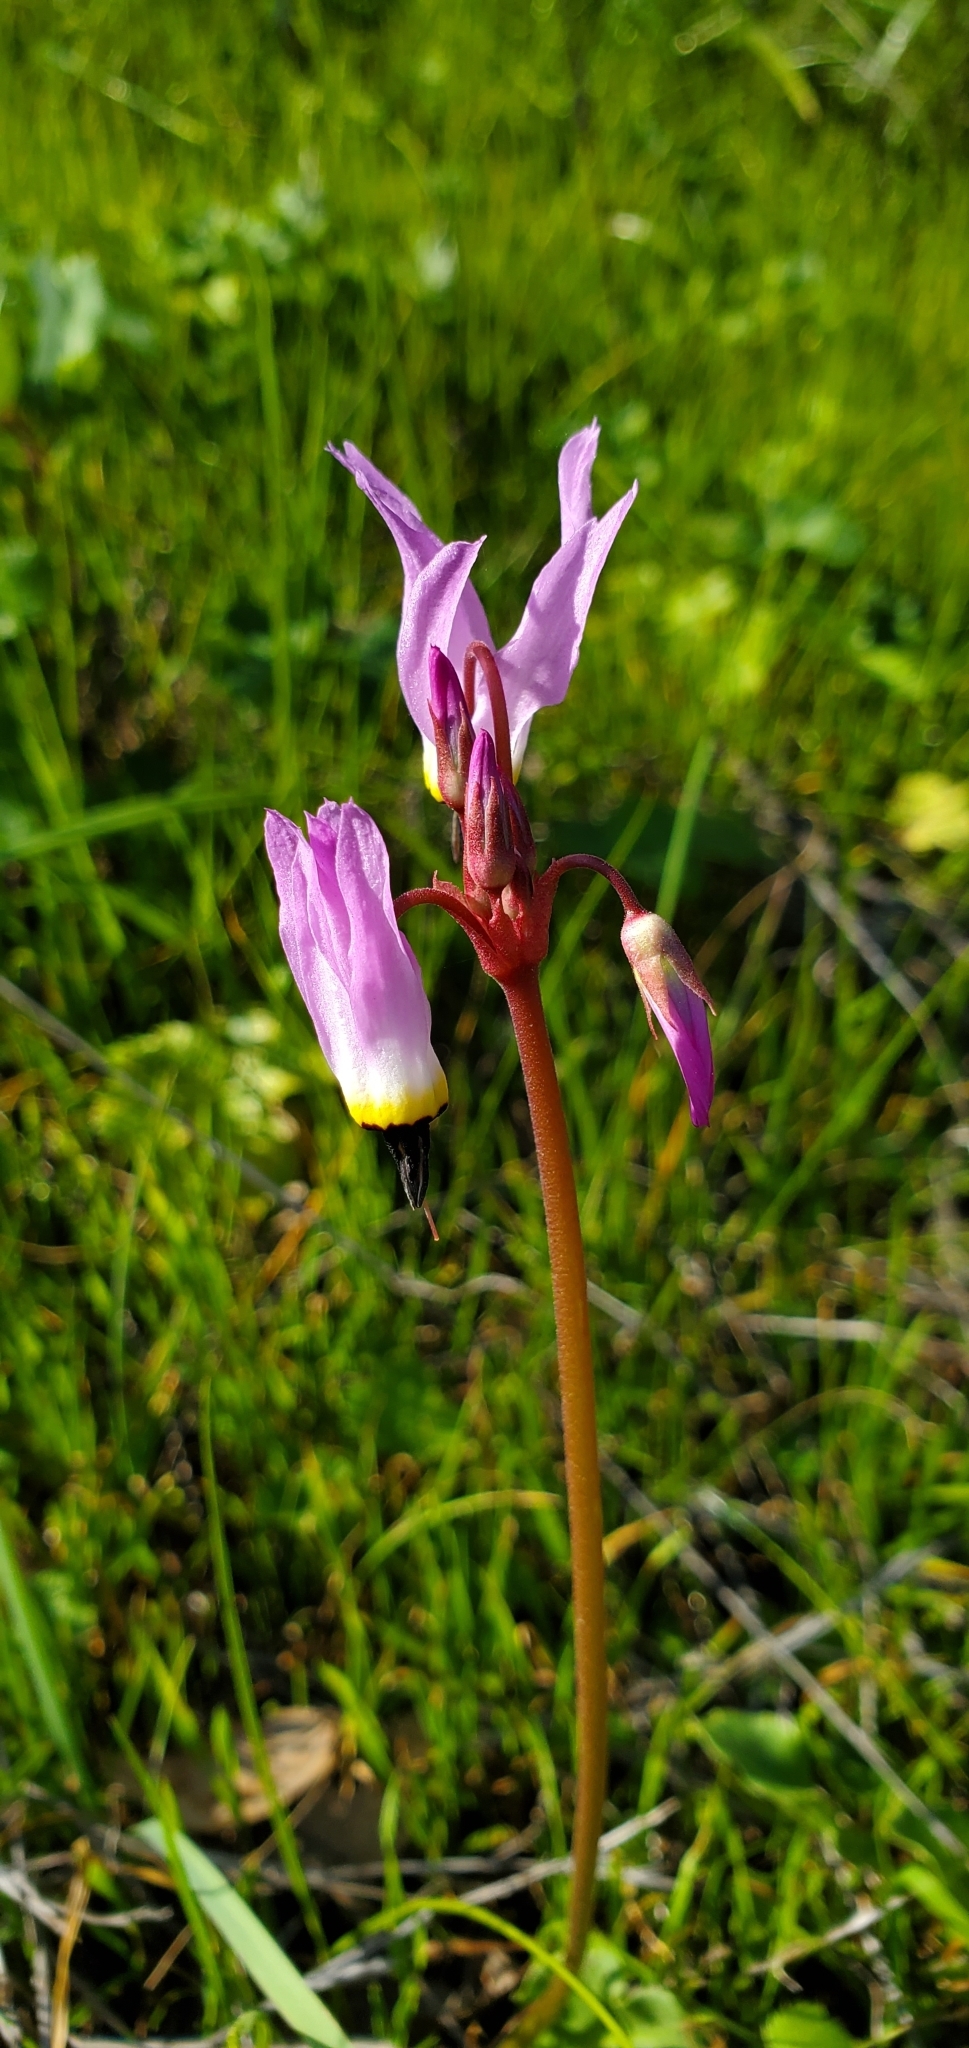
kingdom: Plantae
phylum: Tracheophyta
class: Magnoliopsida
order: Ericales
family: Primulaceae
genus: Dodecatheon
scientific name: Dodecatheon hendersonii
